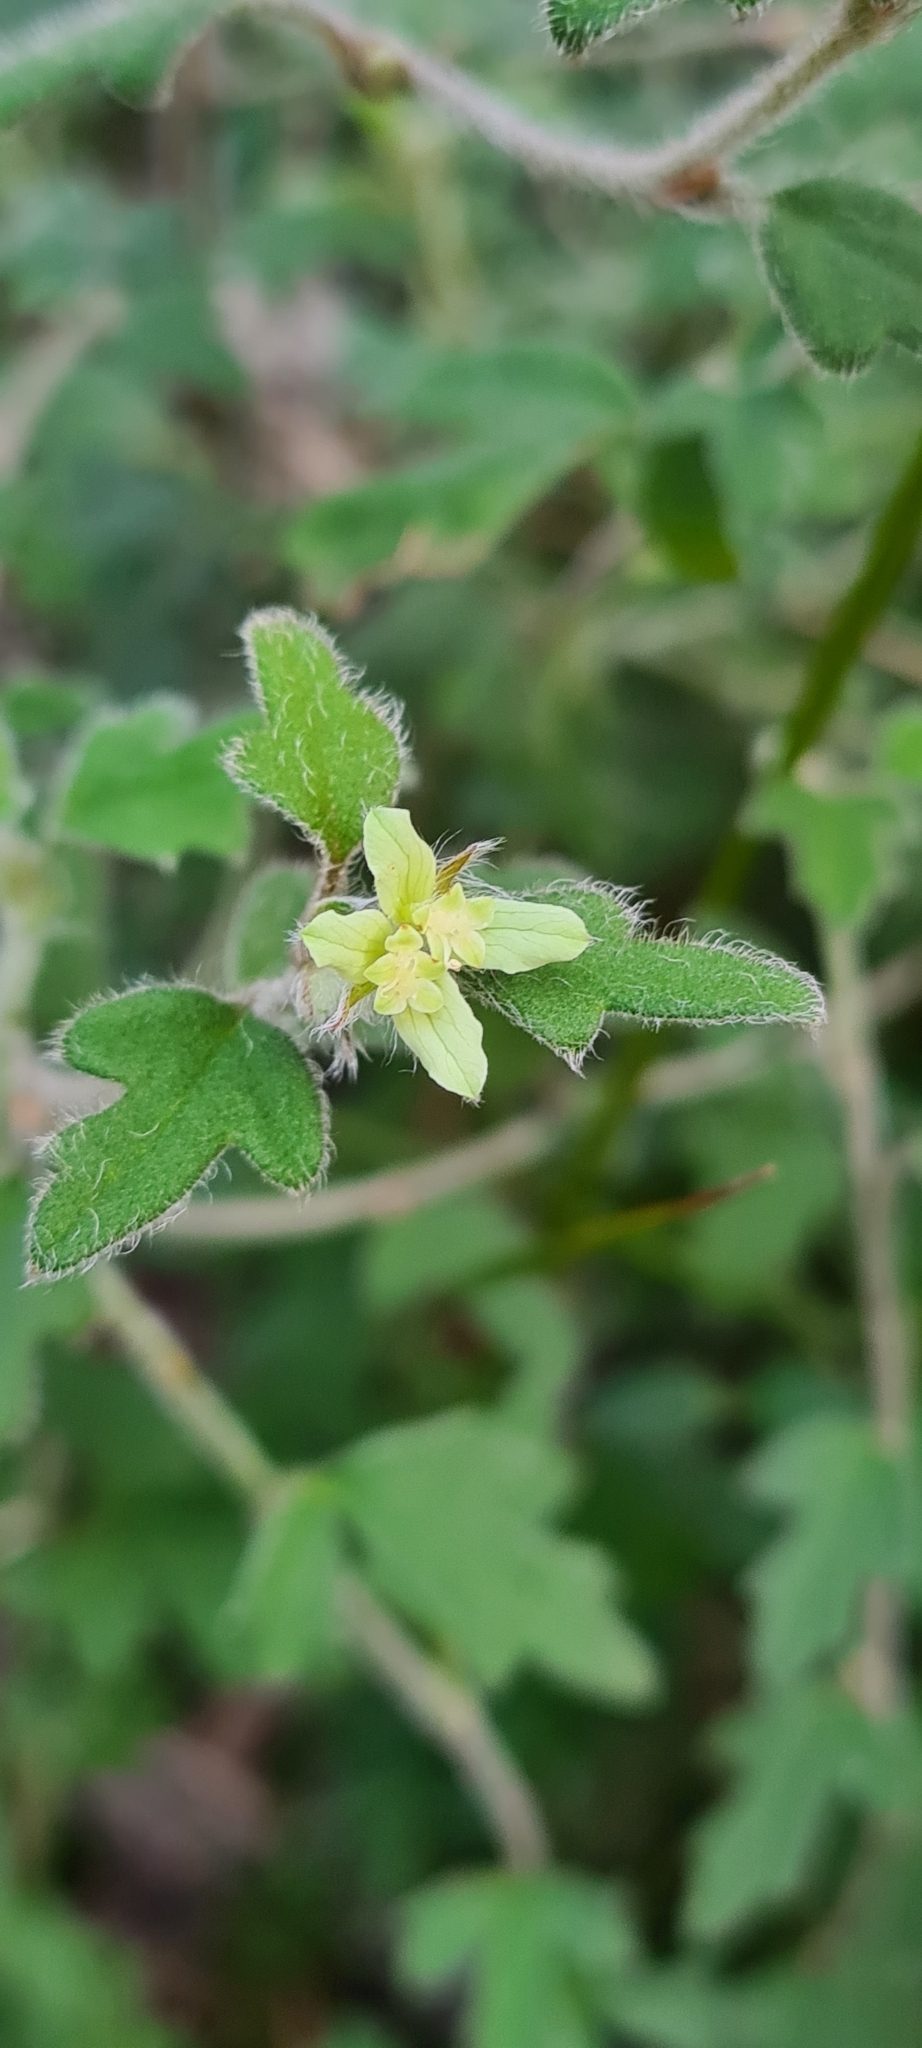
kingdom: Plantae
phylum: Tracheophyta
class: Magnoliopsida
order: Apiales
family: Apiaceae
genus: Xanthosia
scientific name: Xanthosia pilosa
